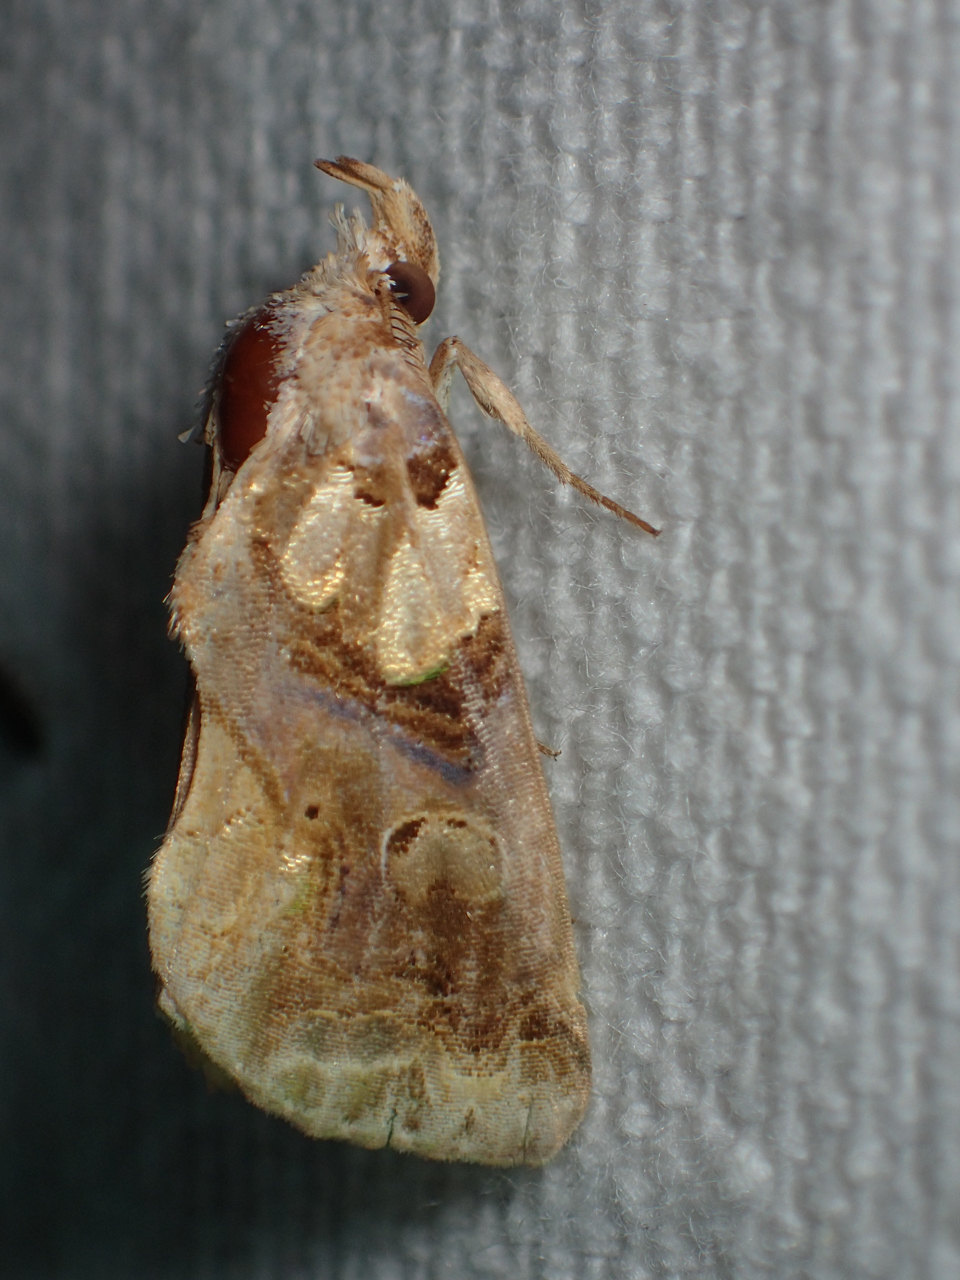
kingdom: Animalia
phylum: Arthropoda
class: Insecta
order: Lepidoptera
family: Erebidae
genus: Plusiodonta
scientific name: Plusiodonta compressipalpis
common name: Moonseed moth
